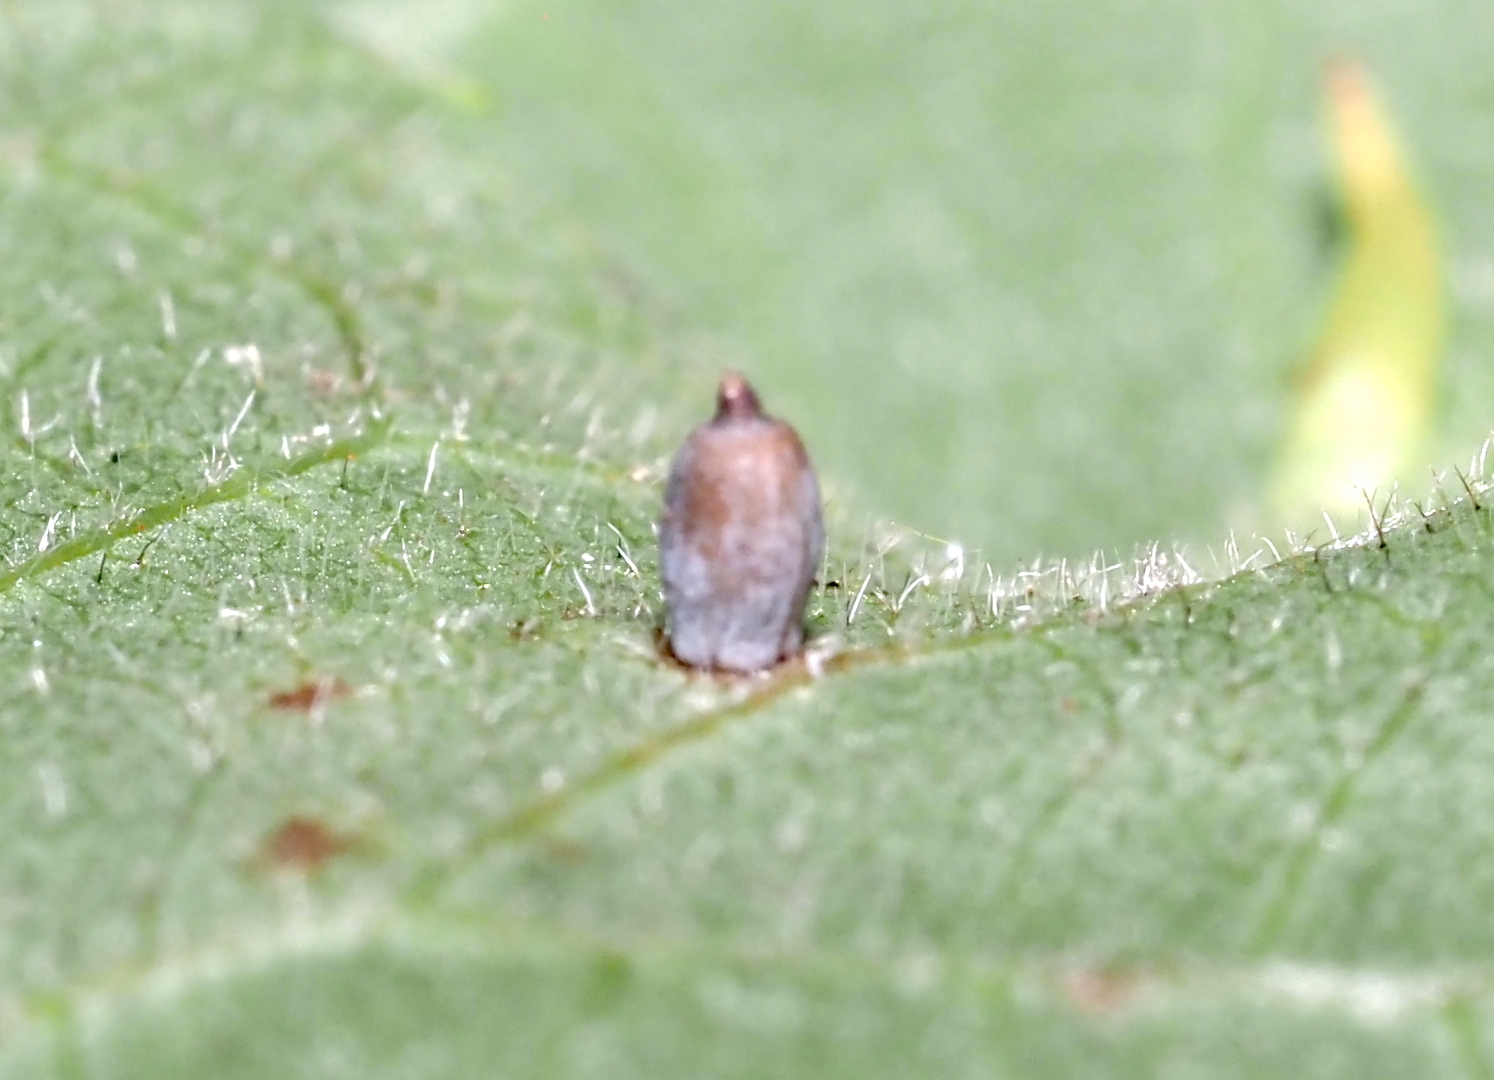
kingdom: Animalia
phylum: Arthropoda
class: Insecta
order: Diptera
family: Cecidomyiidae
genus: Caryomyia
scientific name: Caryomyia urnula
